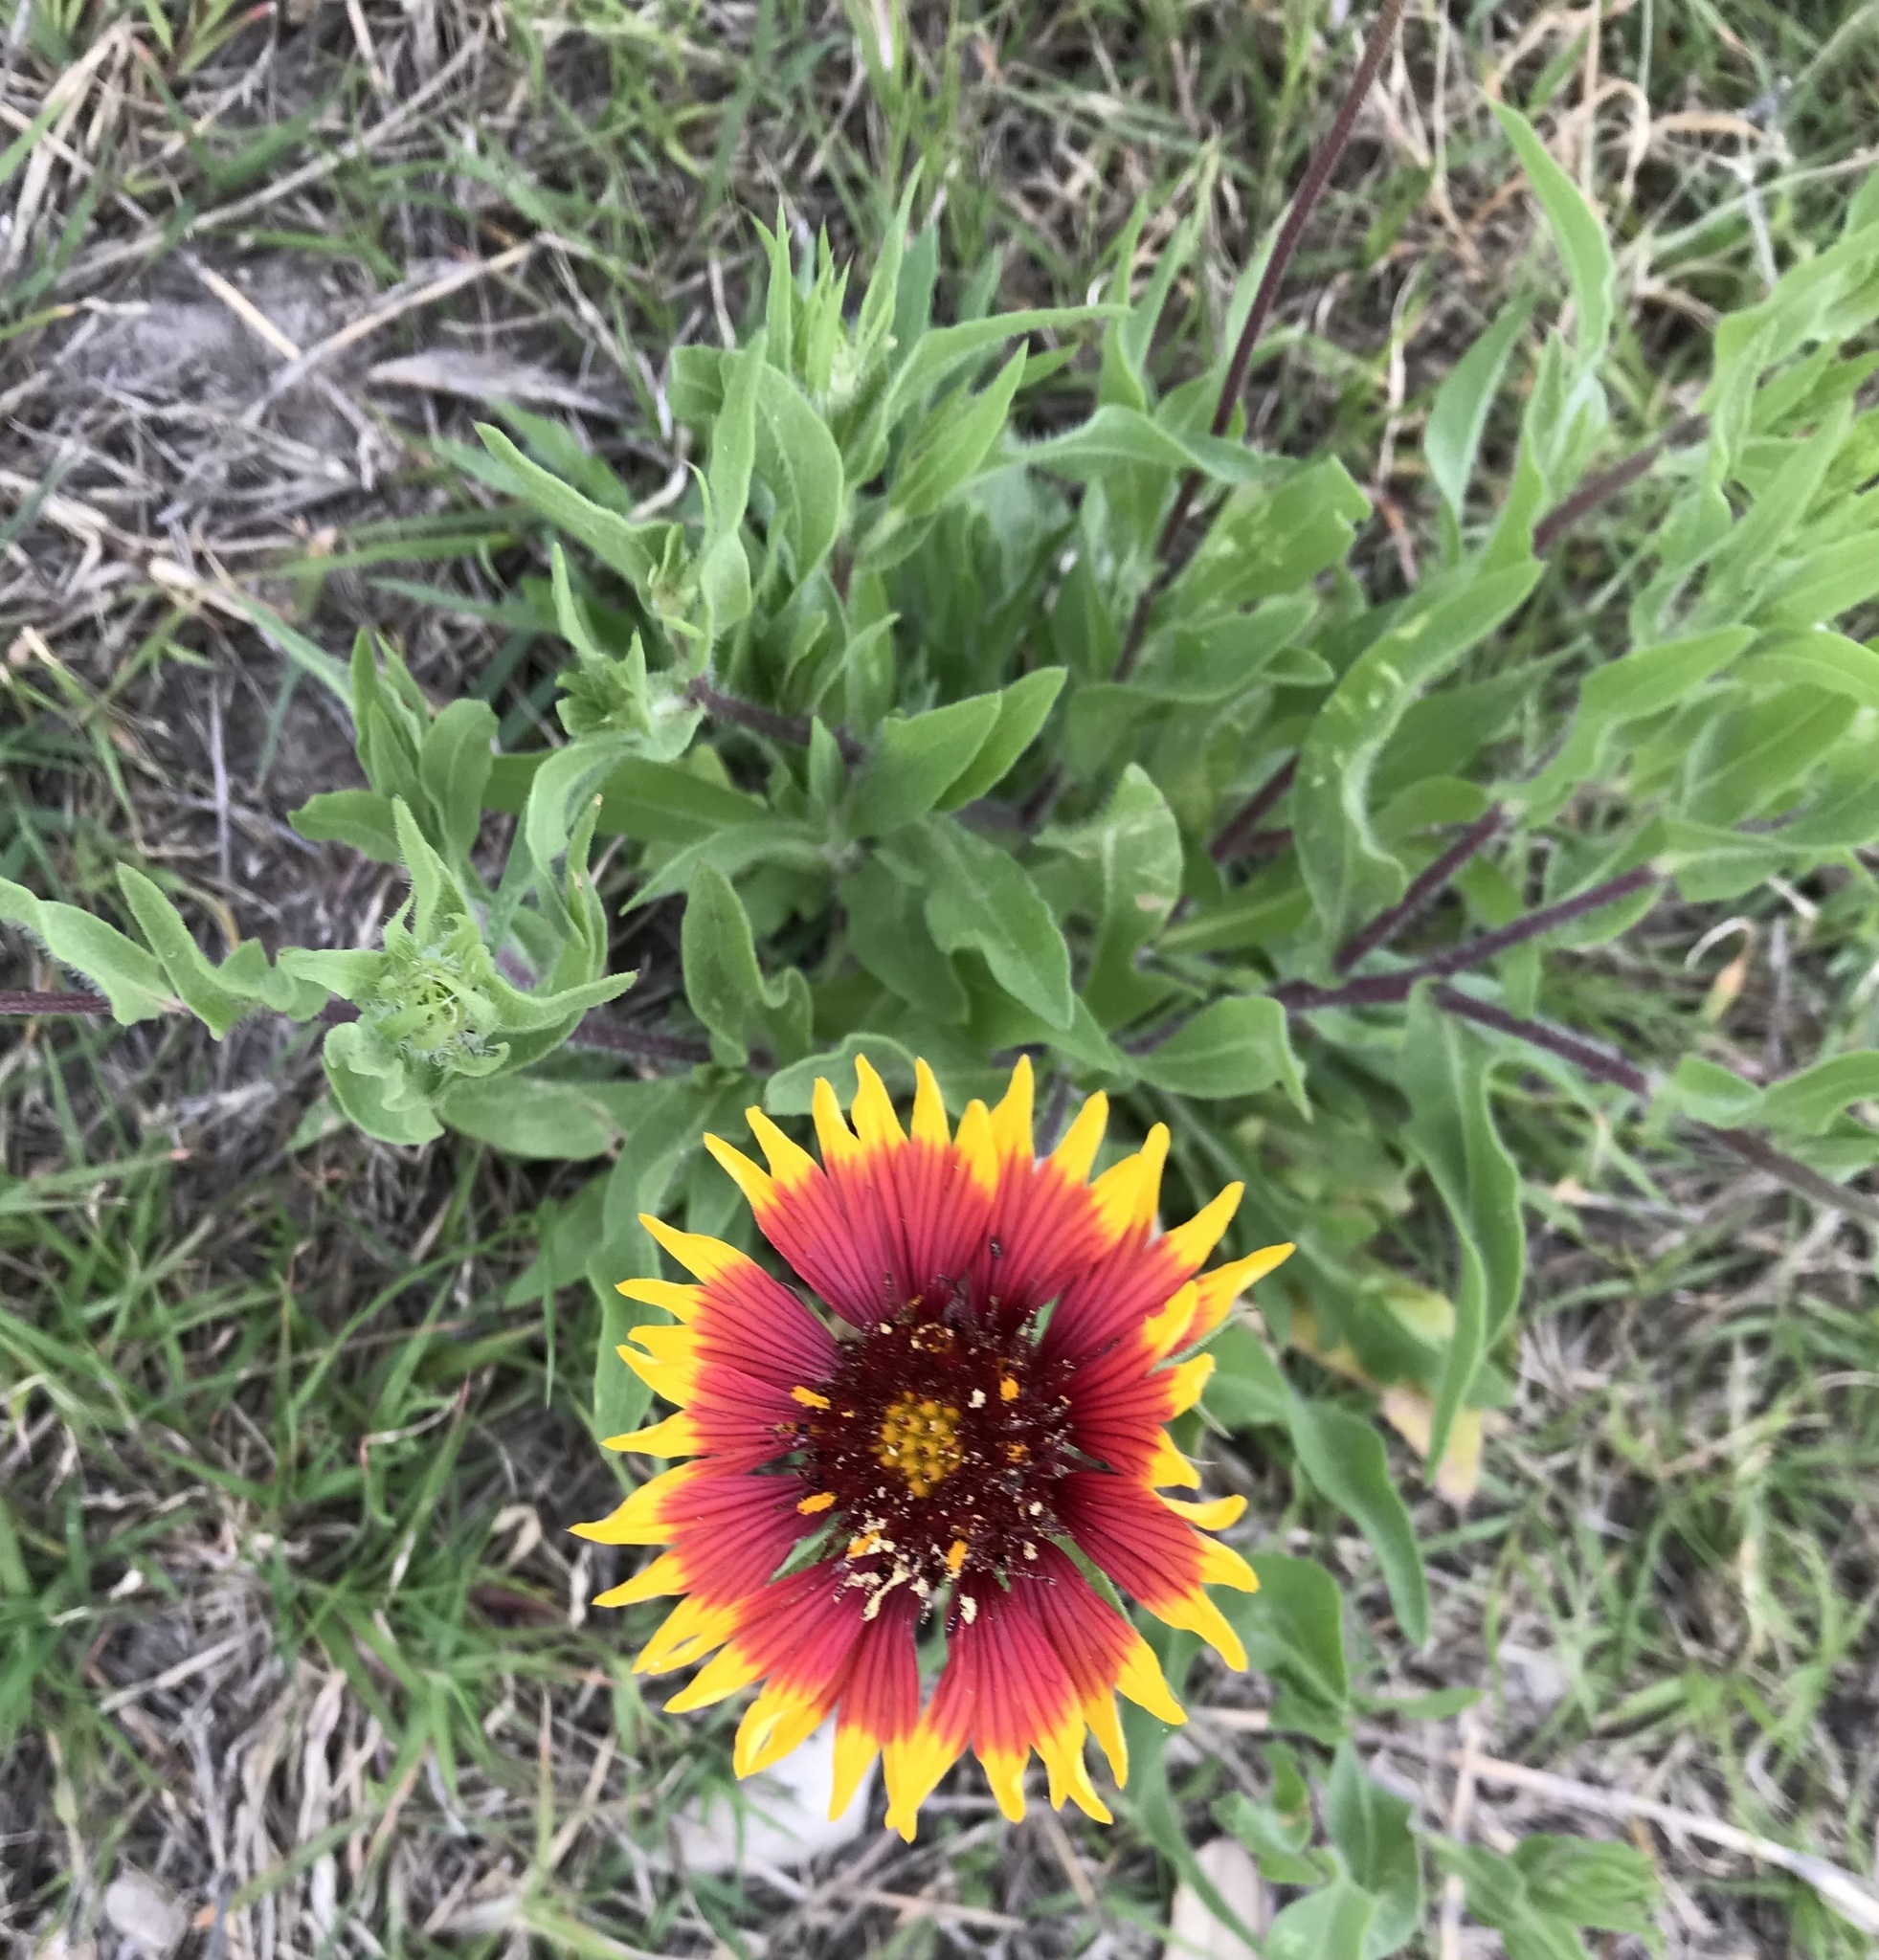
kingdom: Plantae
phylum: Tracheophyta
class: Magnoliopsida
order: Asterales
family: Asteraceae
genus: Gaillardia
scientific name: Gaillardia pulchella
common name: Firewheel
